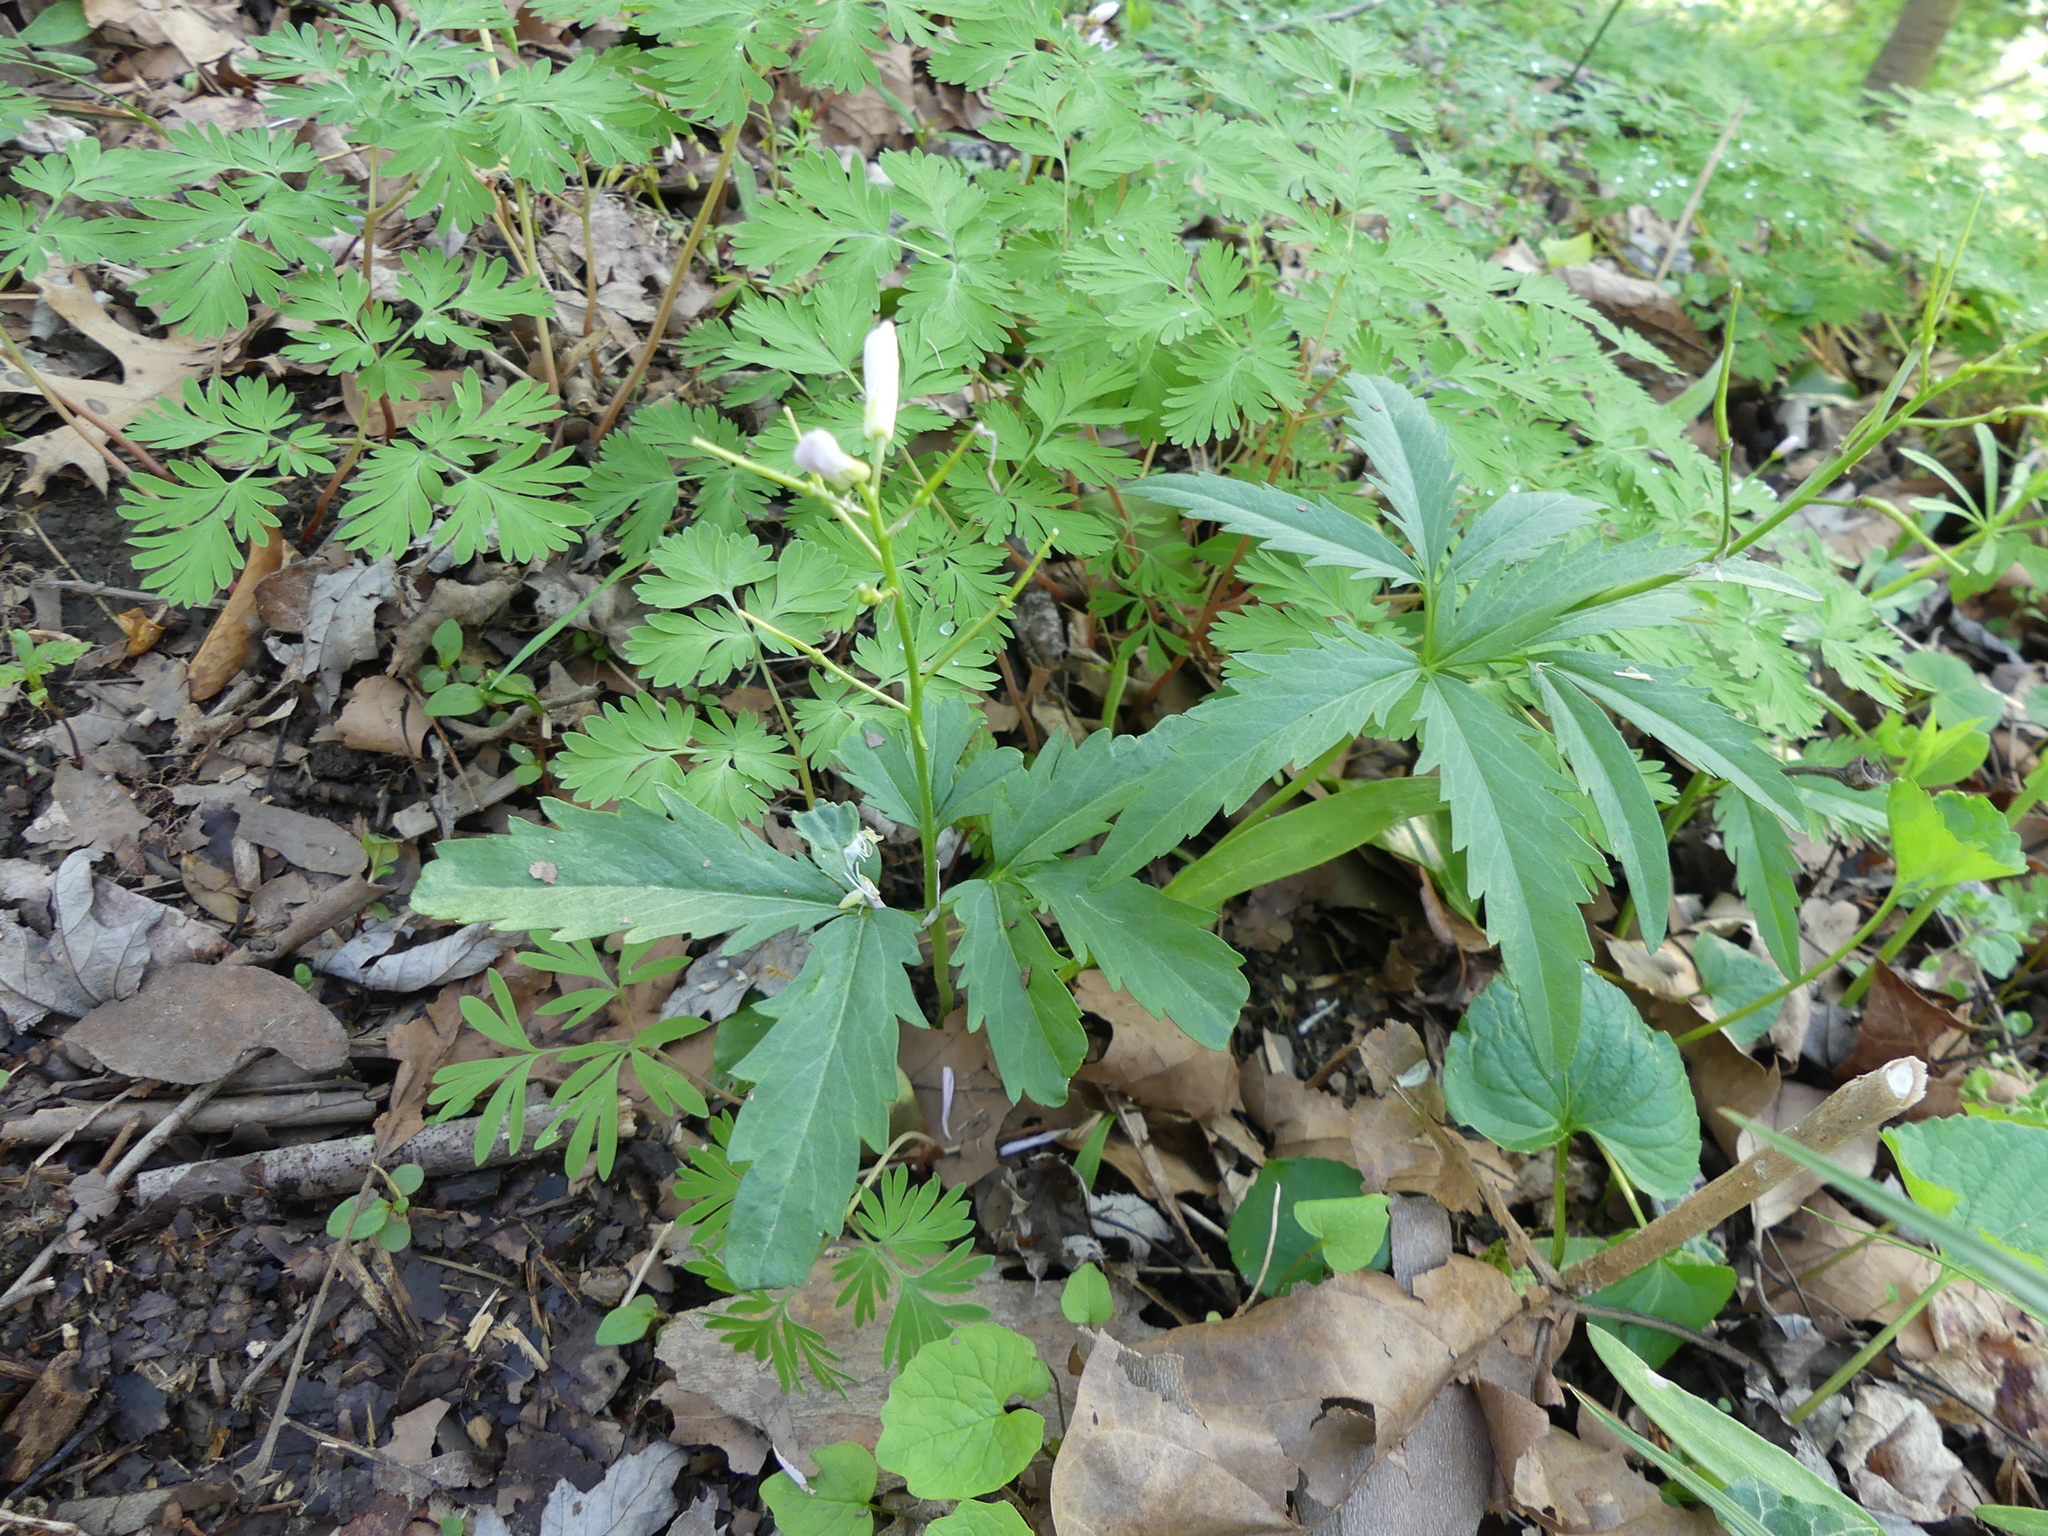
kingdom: Plantae
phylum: Tracheophyta
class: Magnoliopsida
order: Brassicales
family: Brassicaceae
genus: Cardamine
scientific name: Cardamine concatenata
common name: Cut-leaf toothcup
